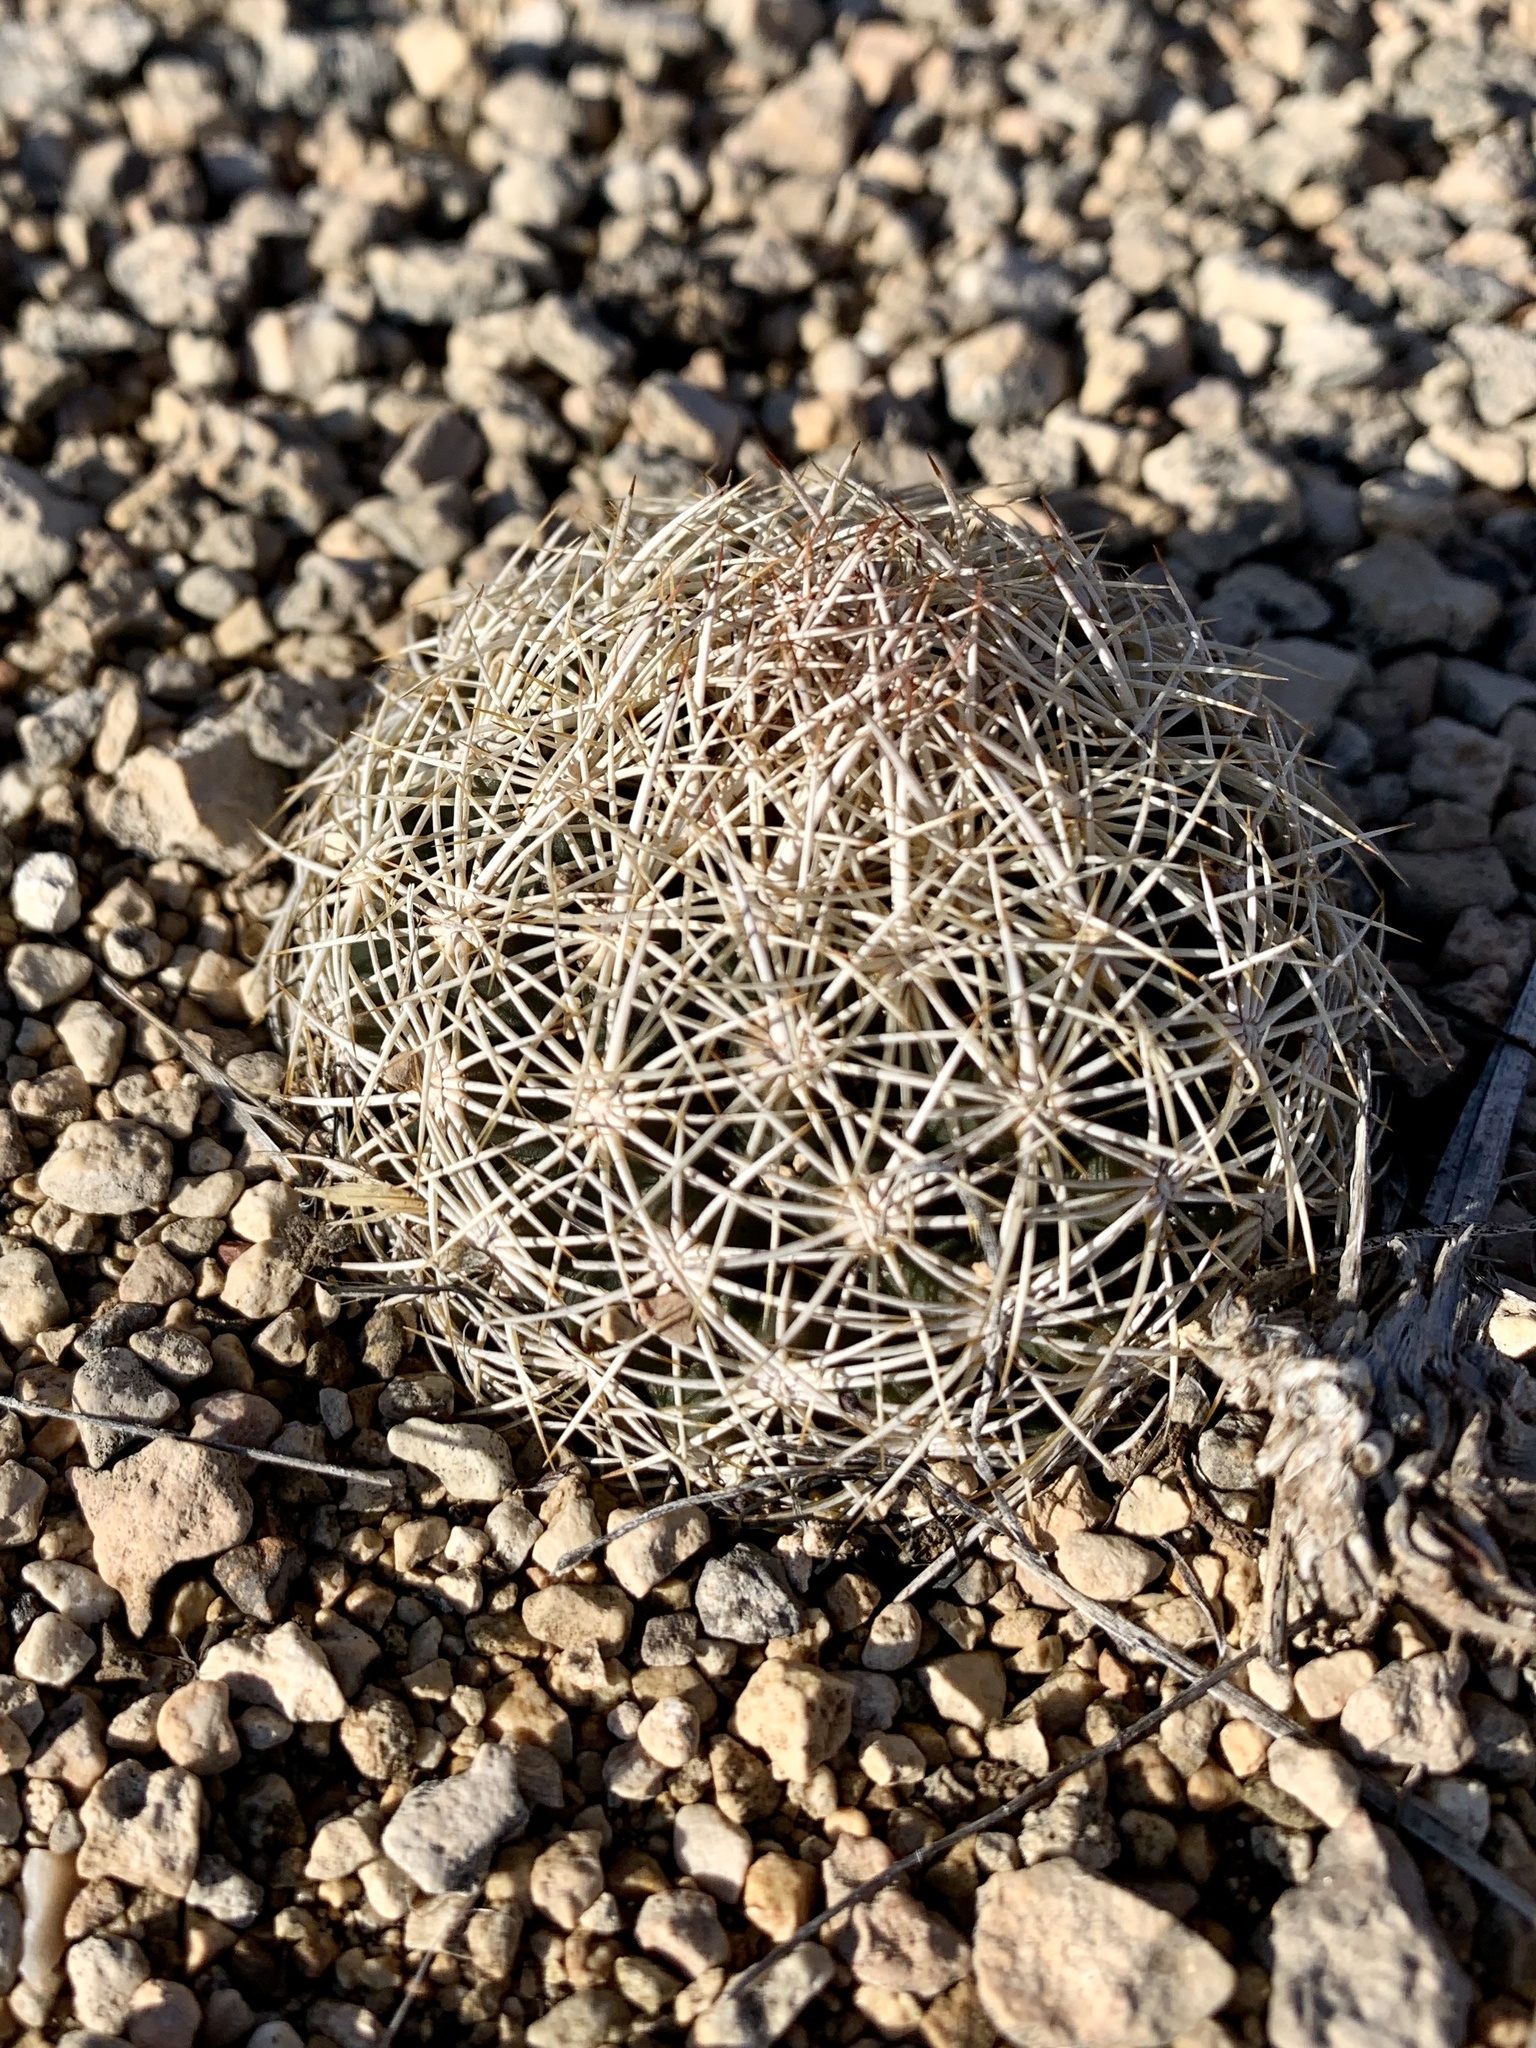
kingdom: Plantae
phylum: Tracheophyta
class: Magnoliopsida
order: Caryophyllales
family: Cactaceae
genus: Coryphantha
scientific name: Coryphantha echinus
